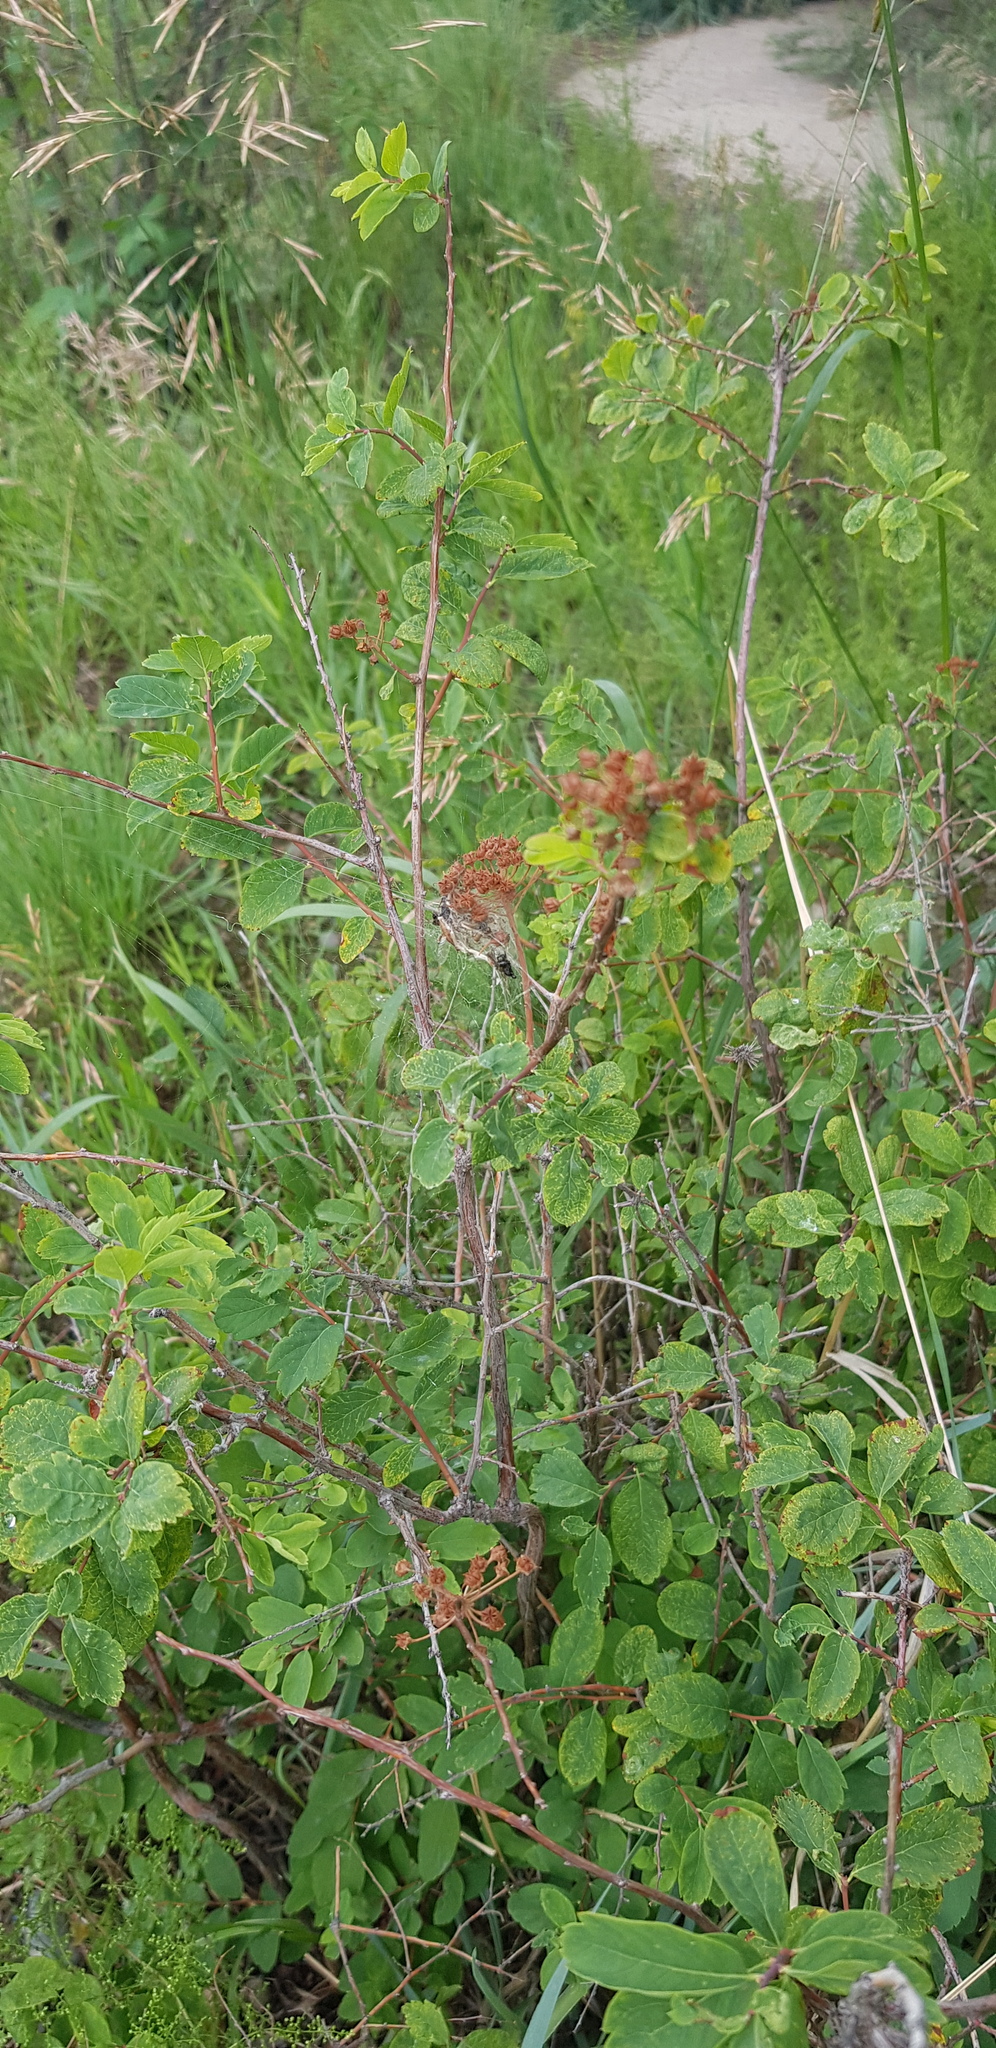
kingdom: Plantae
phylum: Tracheophyta
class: Magnoliopsida
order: Rosales
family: Rosaceae
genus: Spiraea
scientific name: Spiraea media
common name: Russian spiraea
